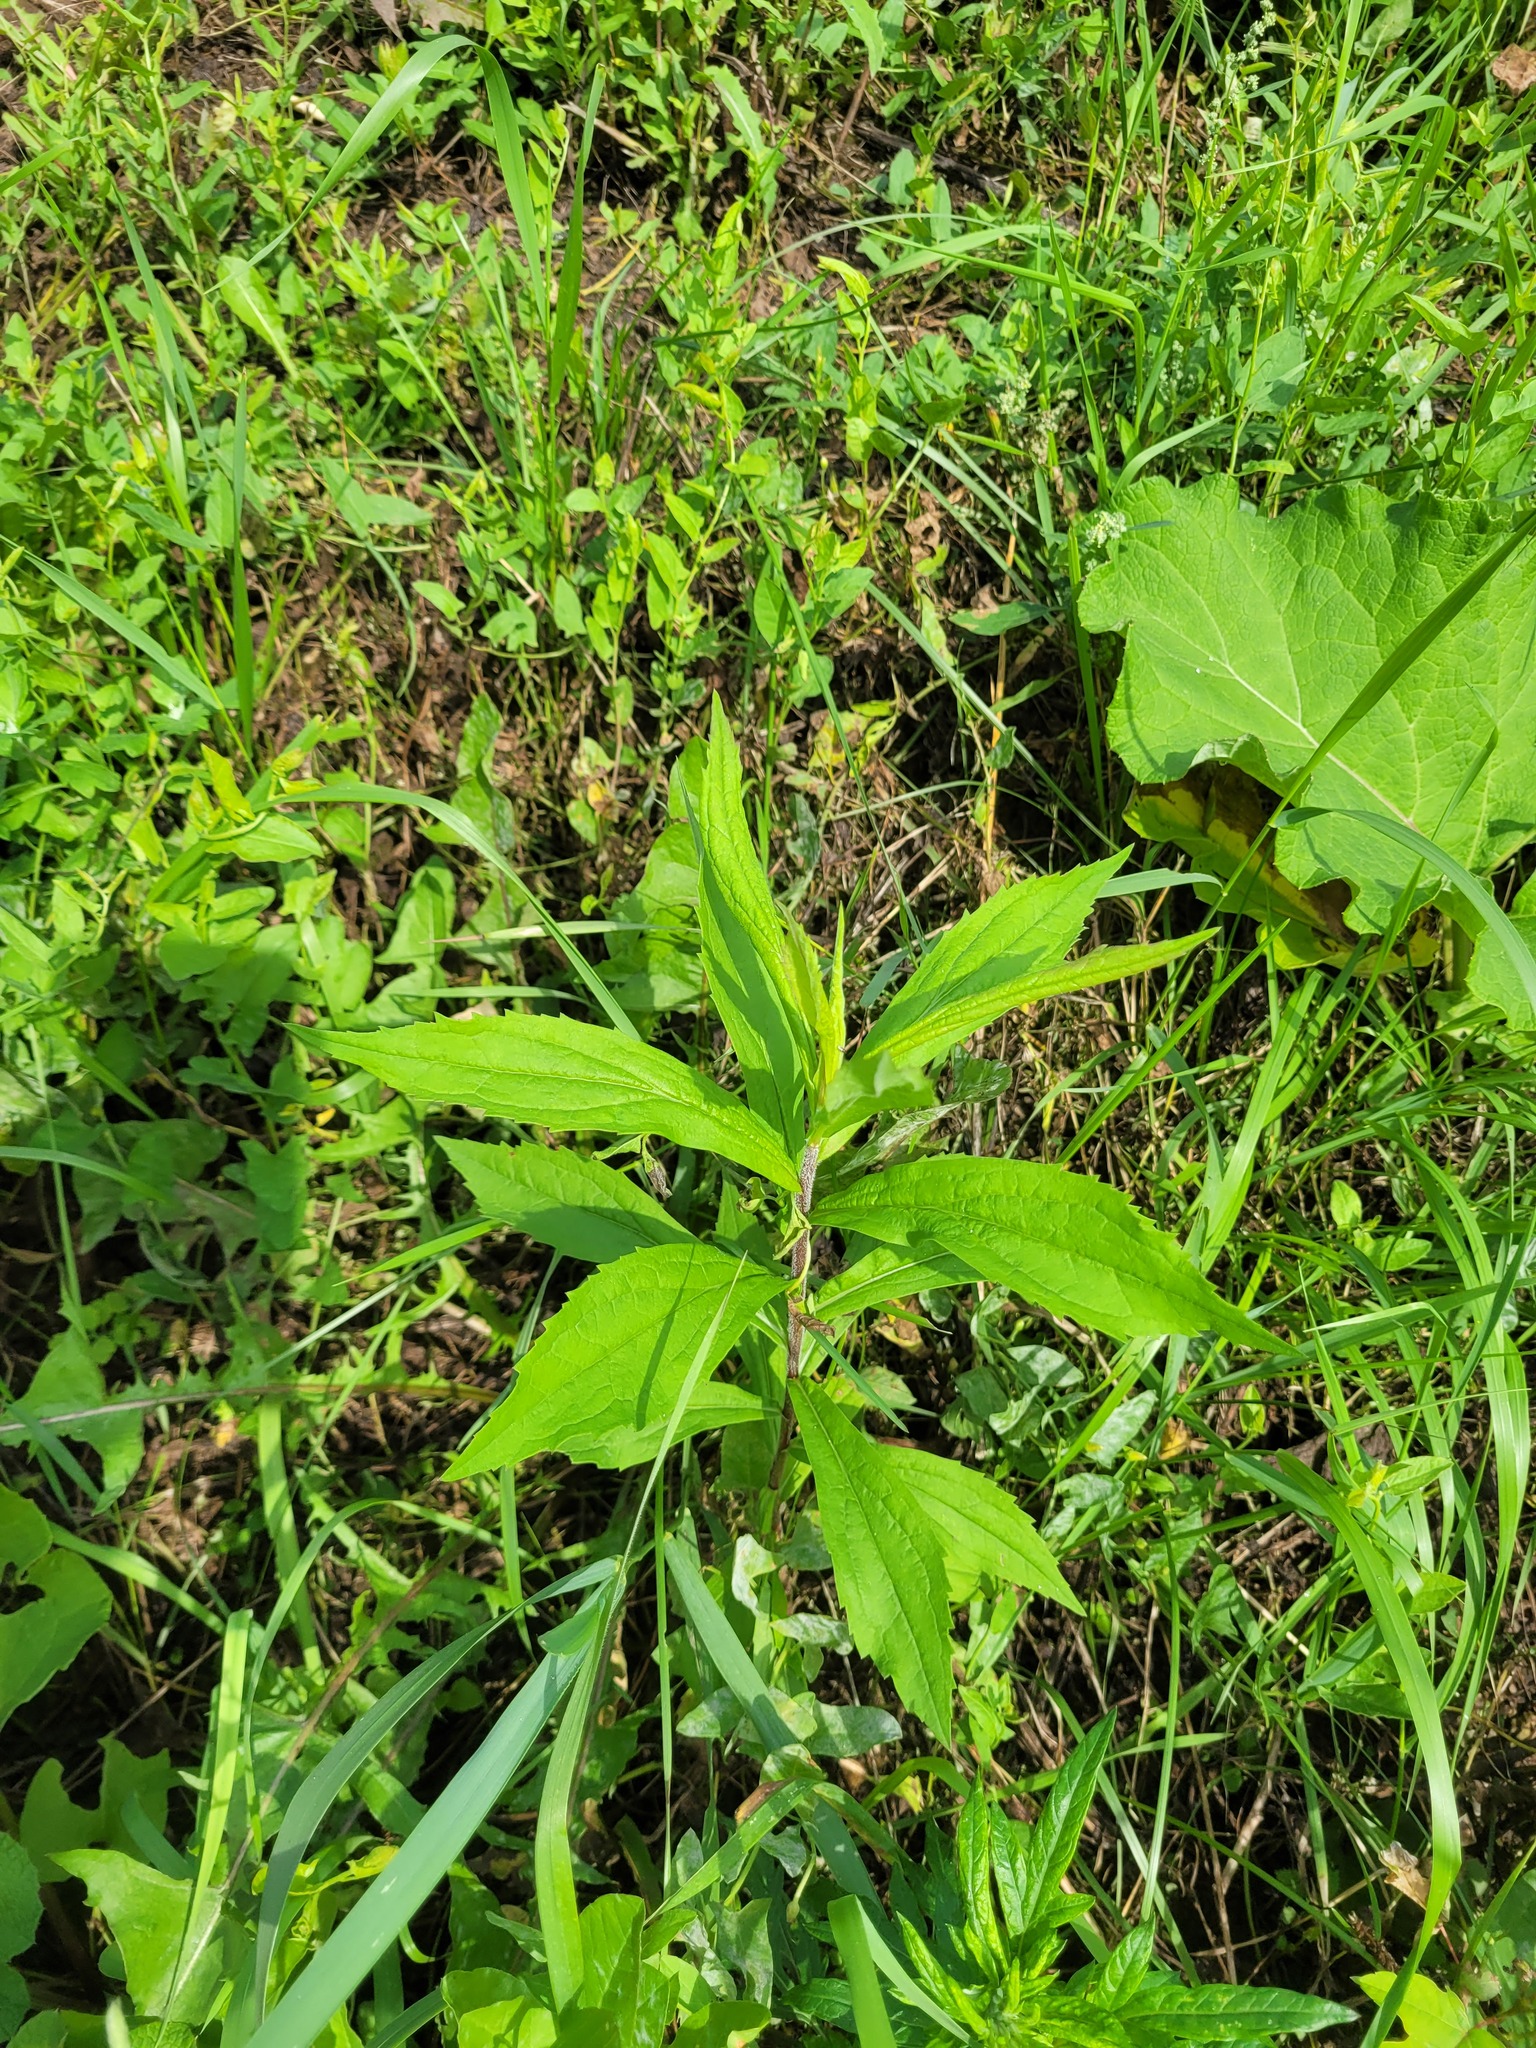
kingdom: Plantae
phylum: Tracheophyta
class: Magnoliopsida
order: Asterales
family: Asteraceae
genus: Solidago
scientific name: Solidago canadensis
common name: Canada goldenrod
